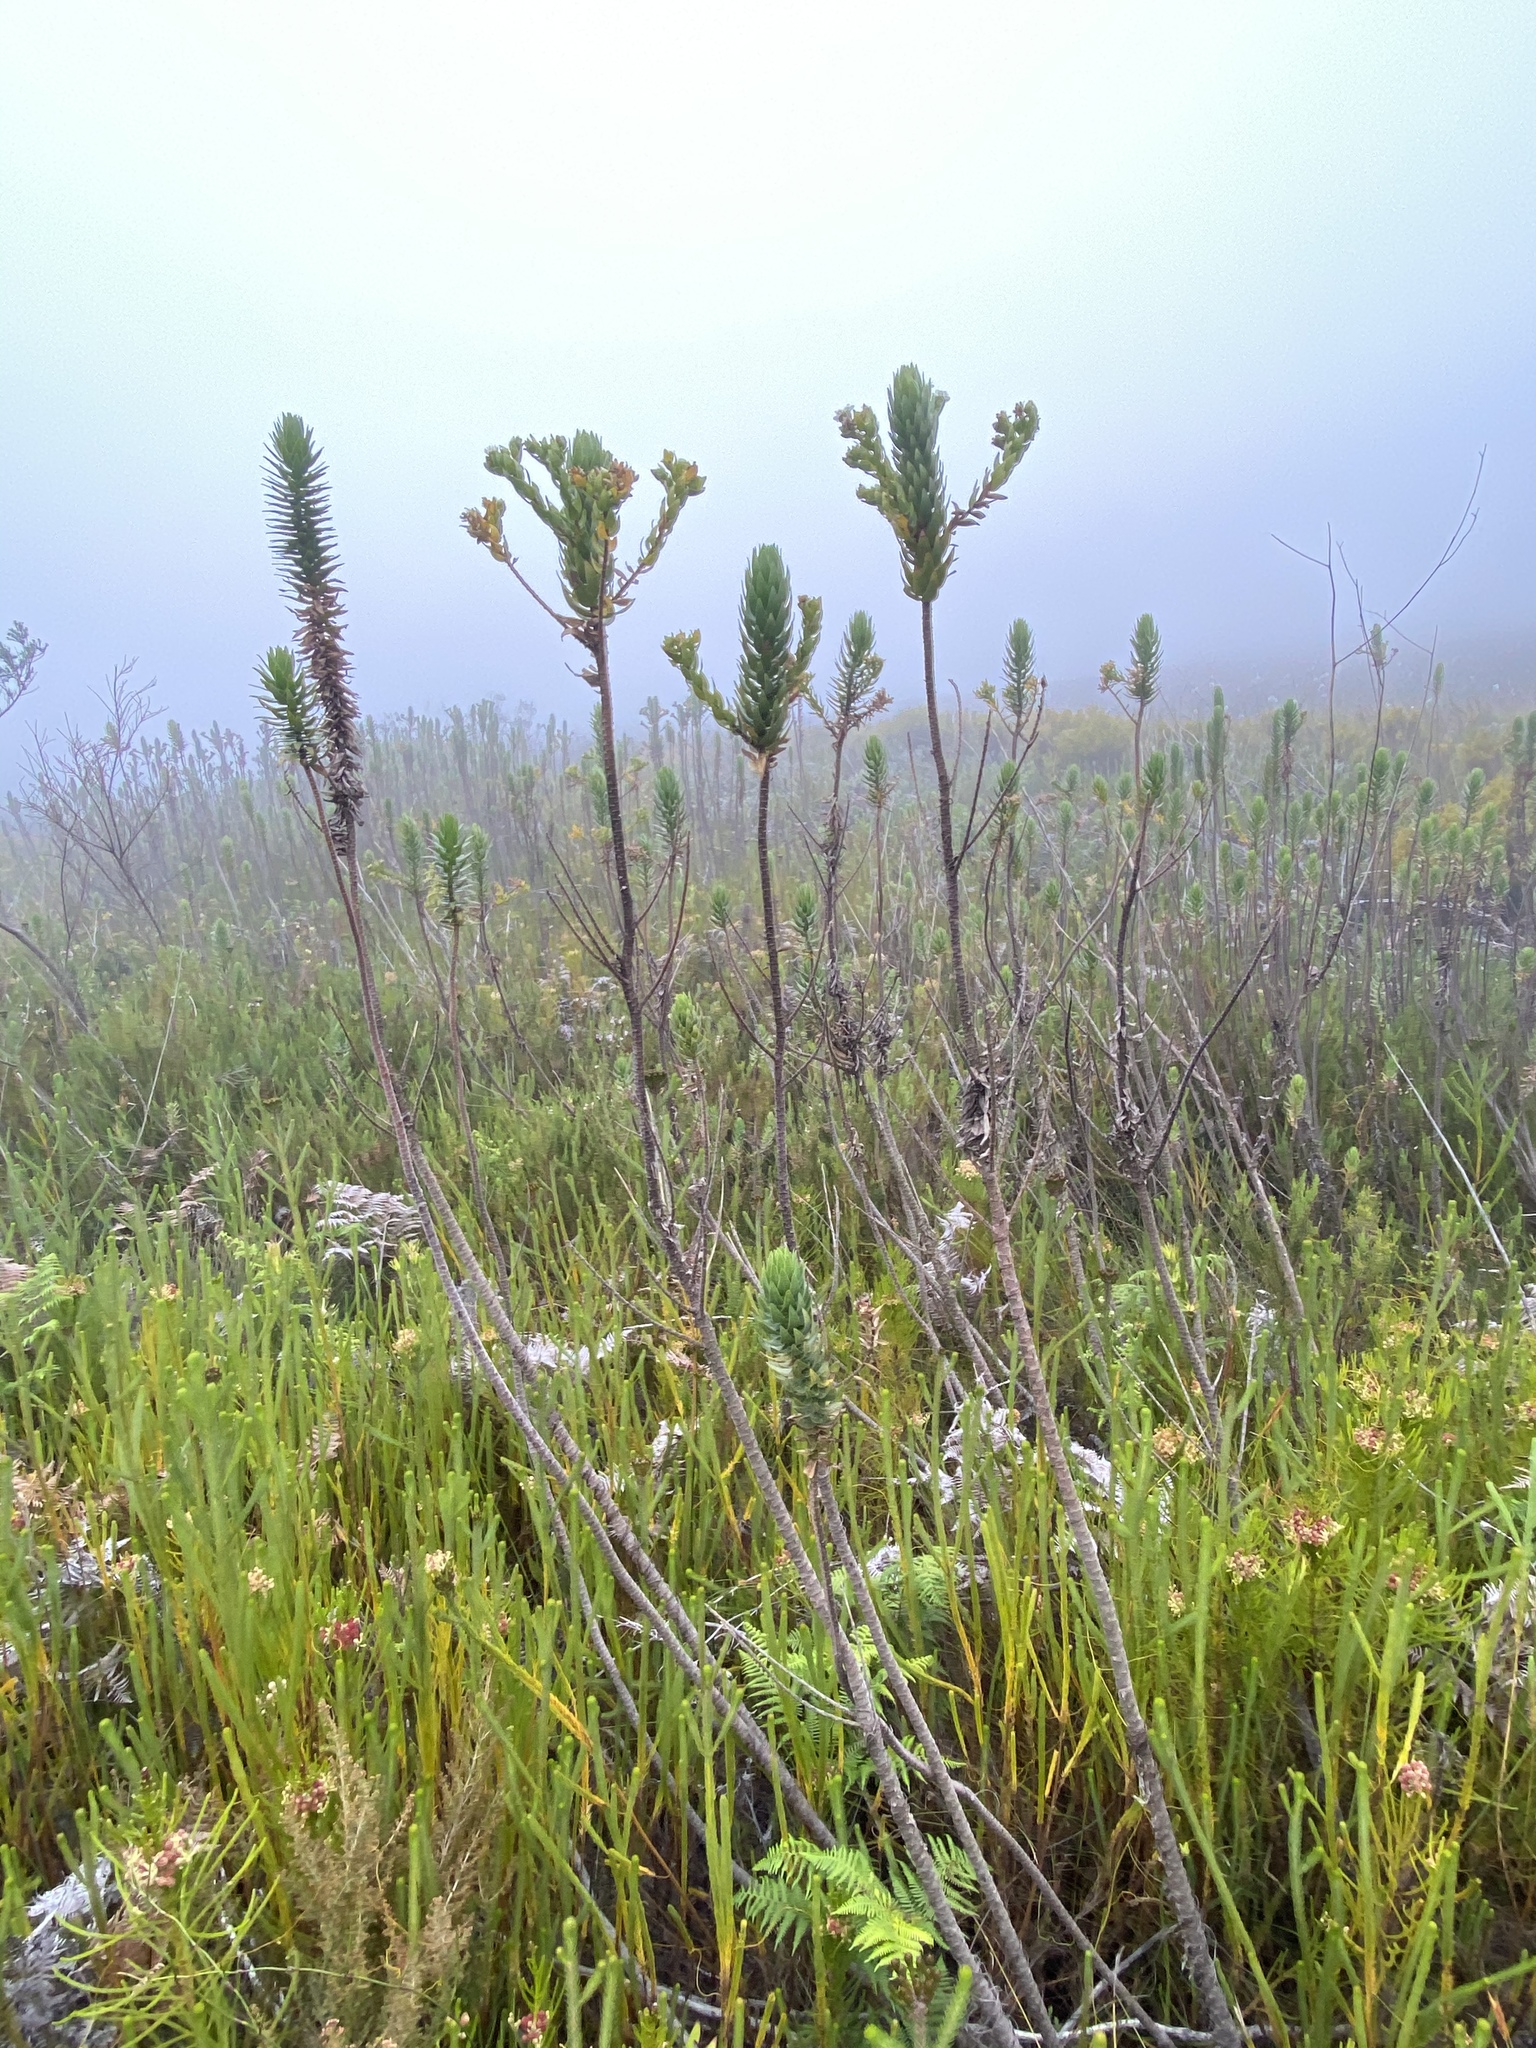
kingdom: Plantae
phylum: Tracheophyta
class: Magnoliopsida
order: Asterales
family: Asteraceae
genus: Osmitopsis
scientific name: Osmitopsis asteriscoides
